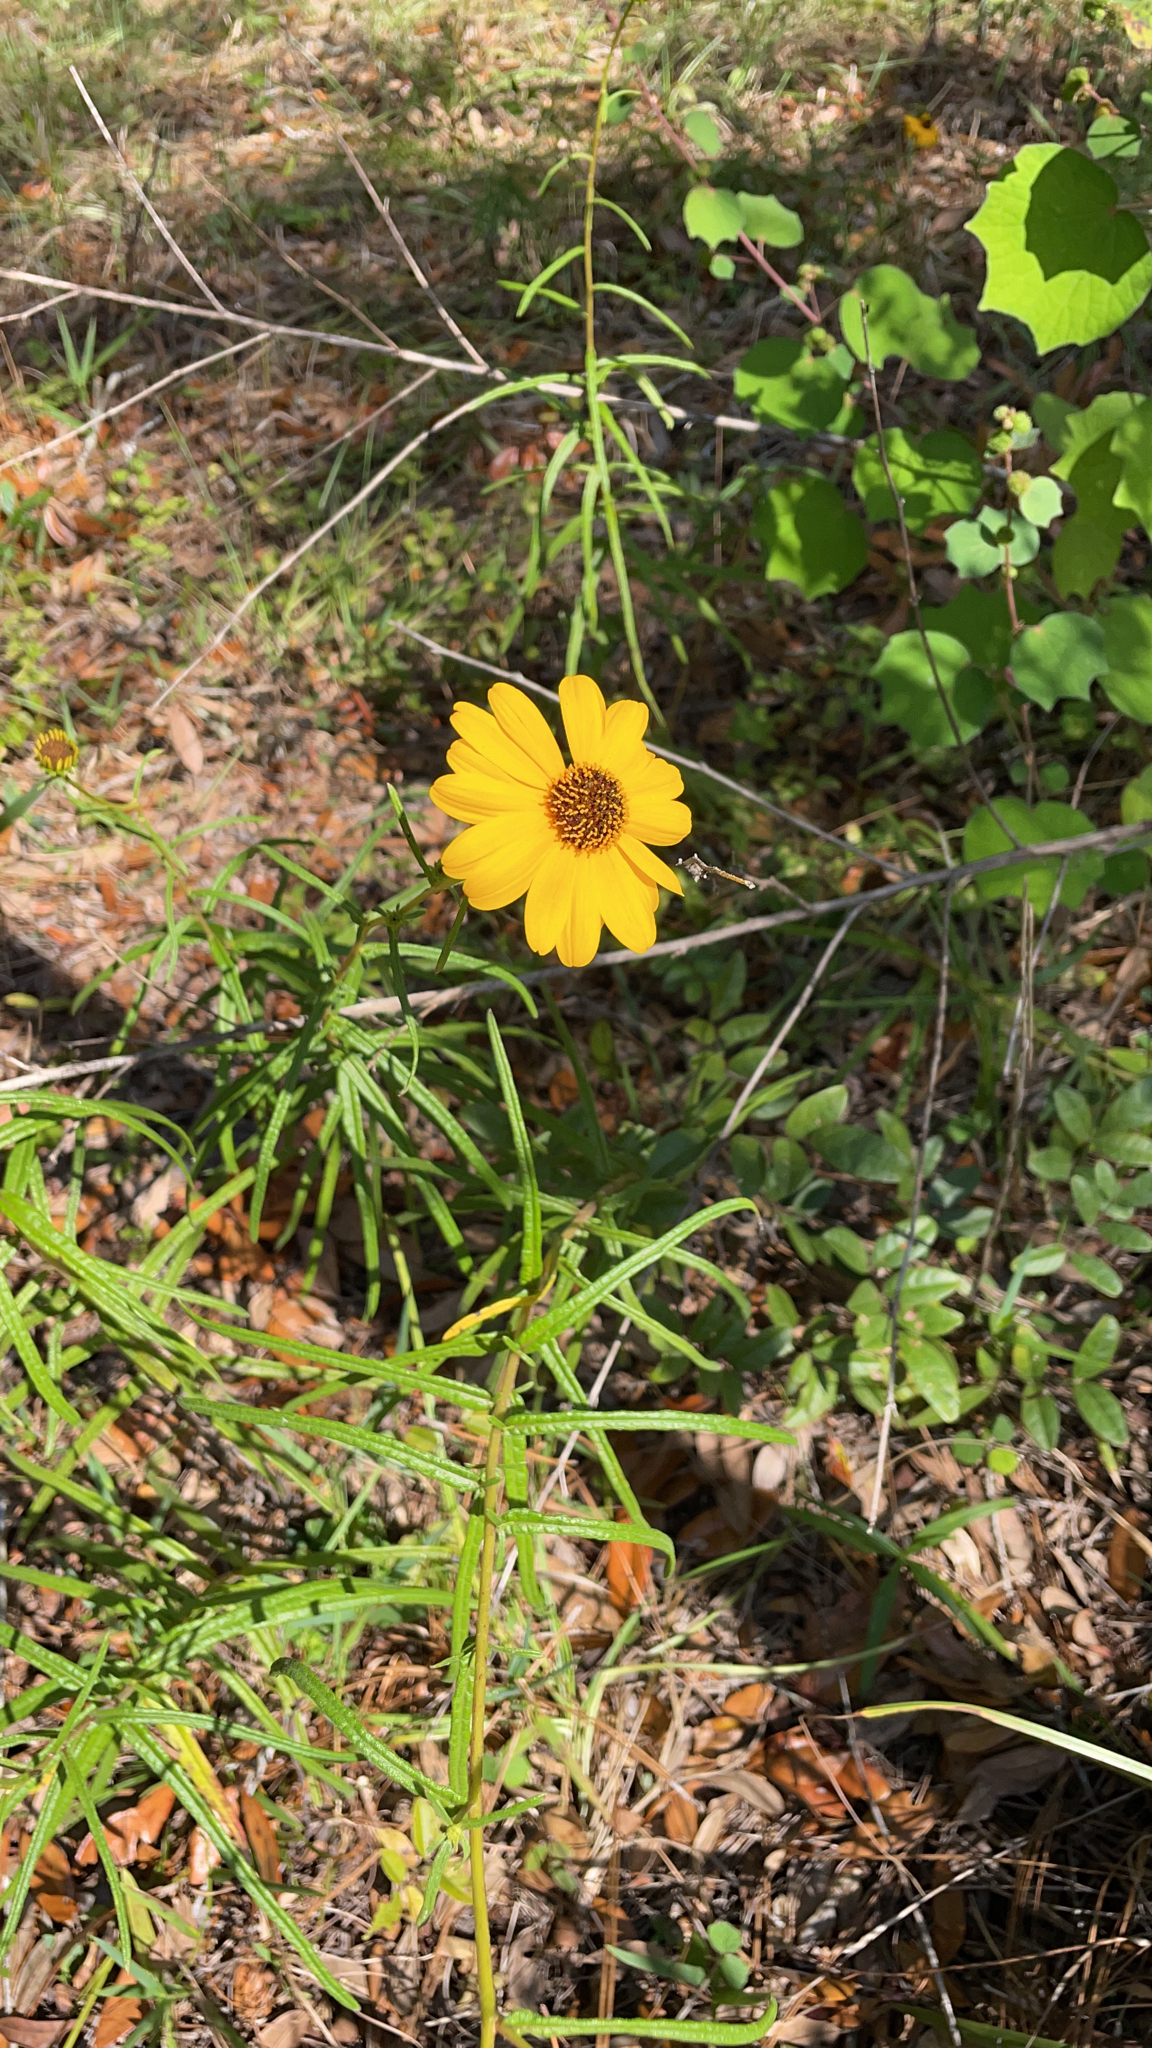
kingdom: Plantae
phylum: Tracheophyta
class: Magnoliopsida
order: Asterales
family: Asteraceae
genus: Helianthus
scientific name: Helianthus angustifolius
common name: Swamp sunflower
